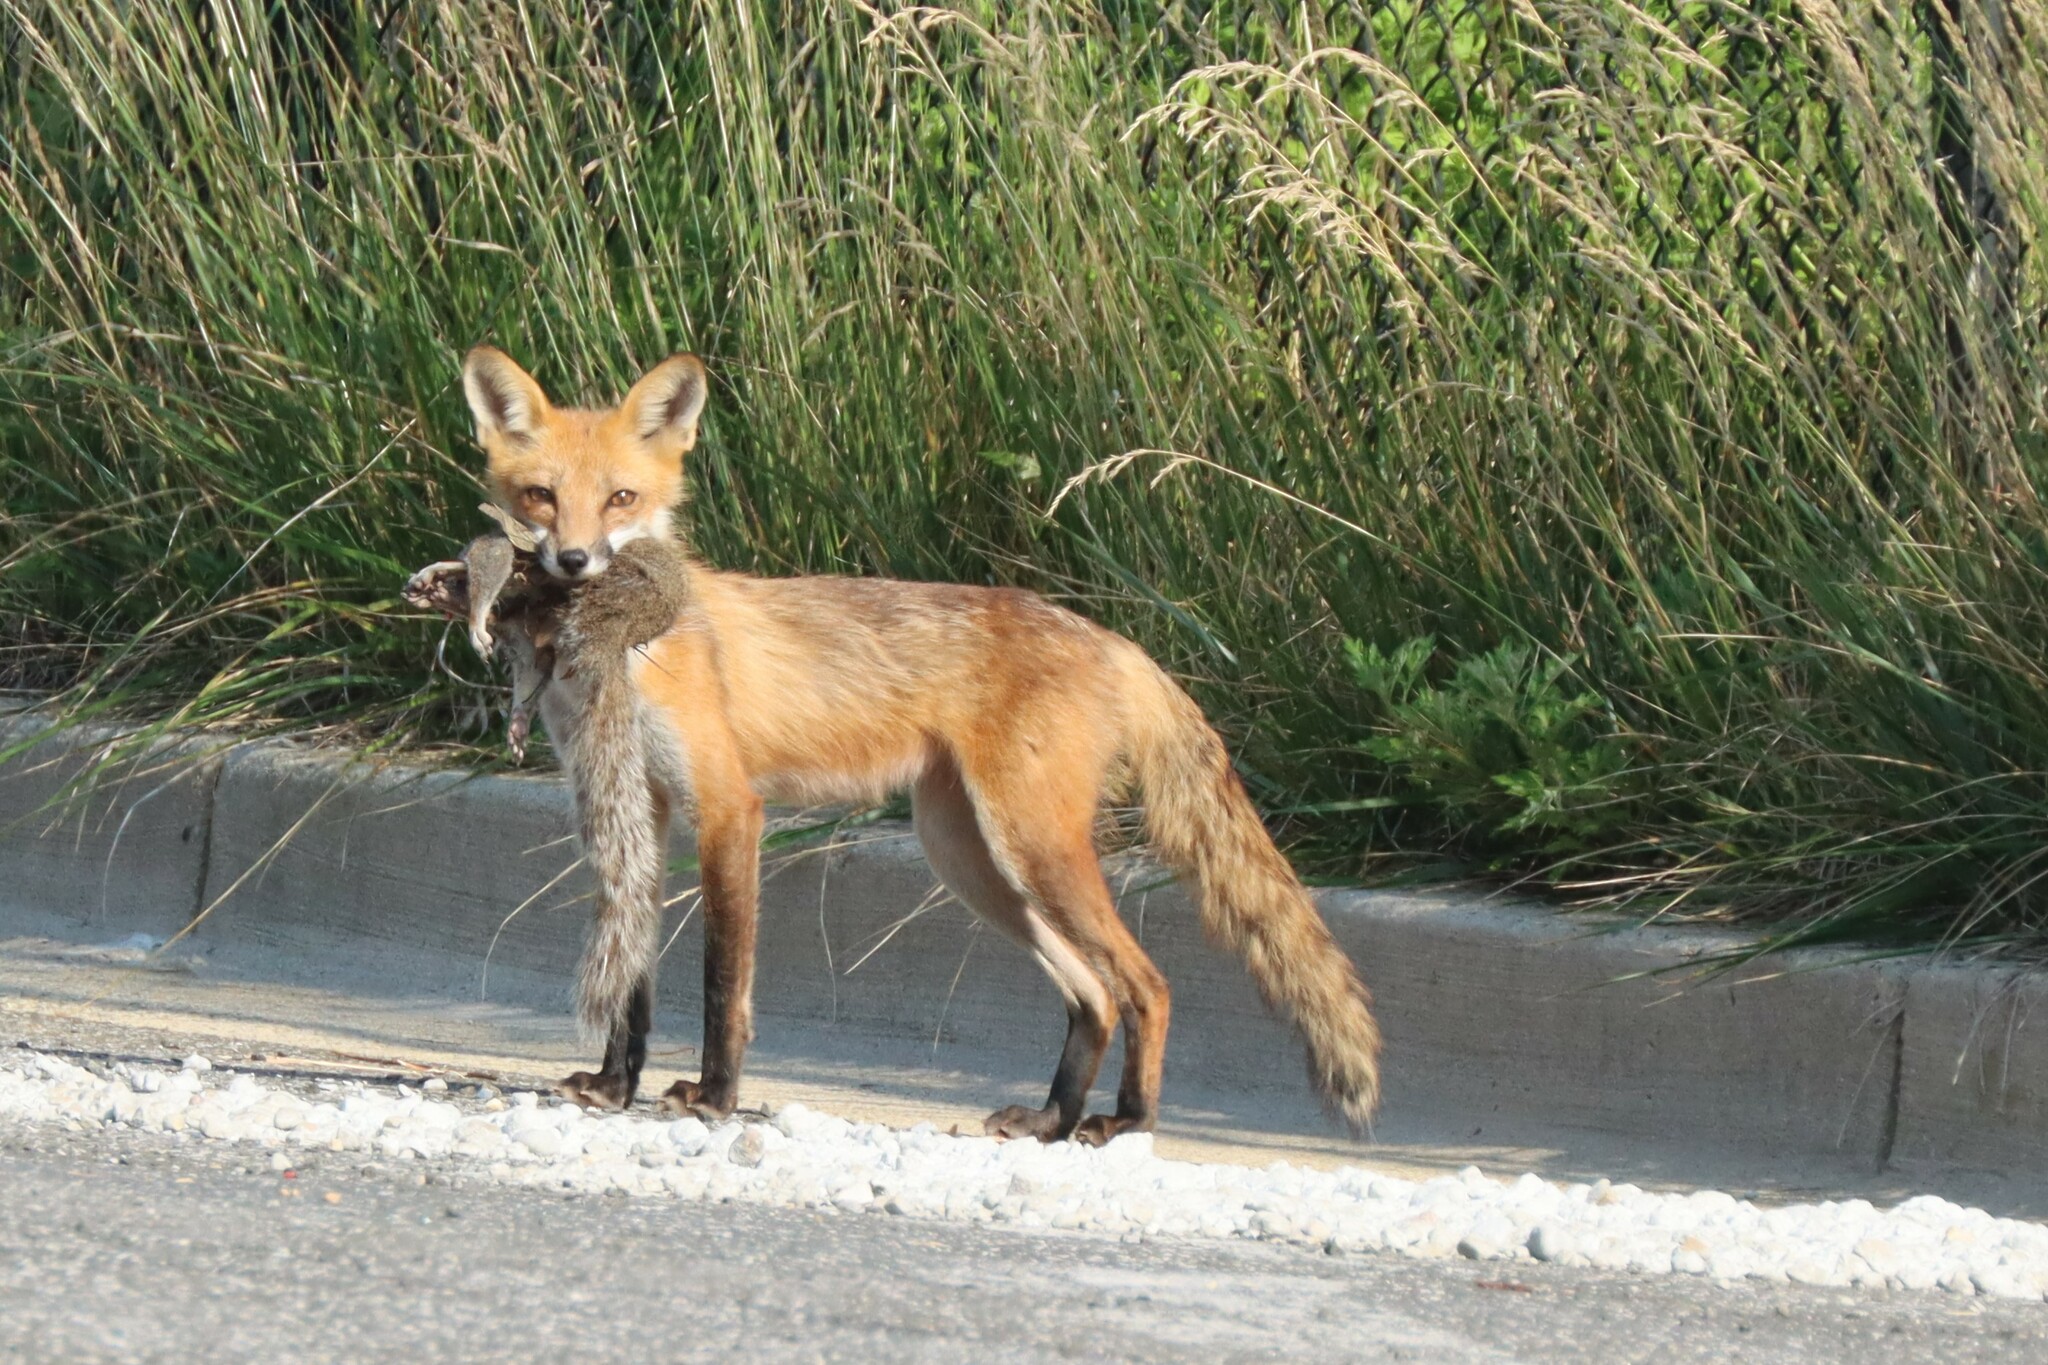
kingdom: Animalia
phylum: Chordata
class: Mammalia
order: Carnivora
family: Canidae
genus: Vulpes
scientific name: Vulpes vulpes
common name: Red fox
